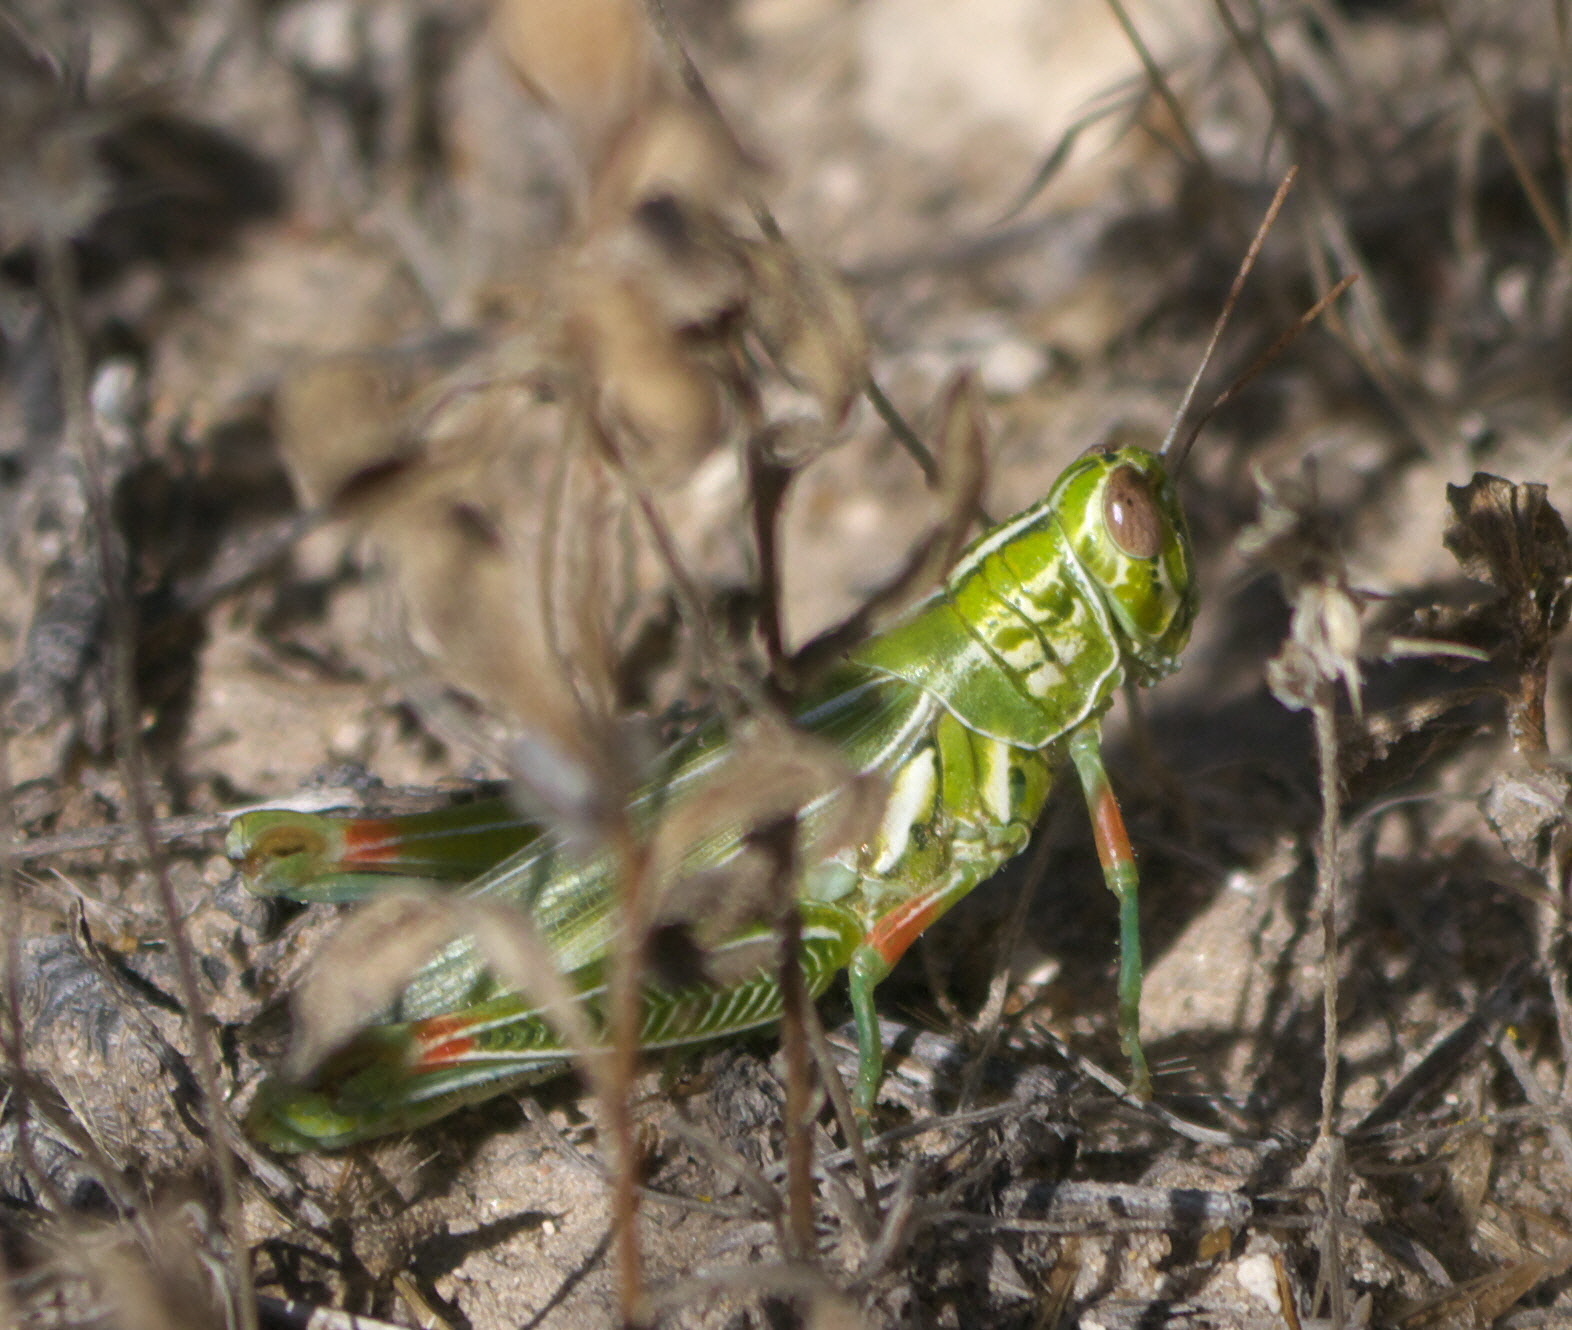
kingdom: Animalia
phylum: Arthropoda
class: Insecta
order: Orthoptera
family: Acrididae
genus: Hesperotettix
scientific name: Hesperotettix viridis
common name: Meadow purple-striped grasshopper
